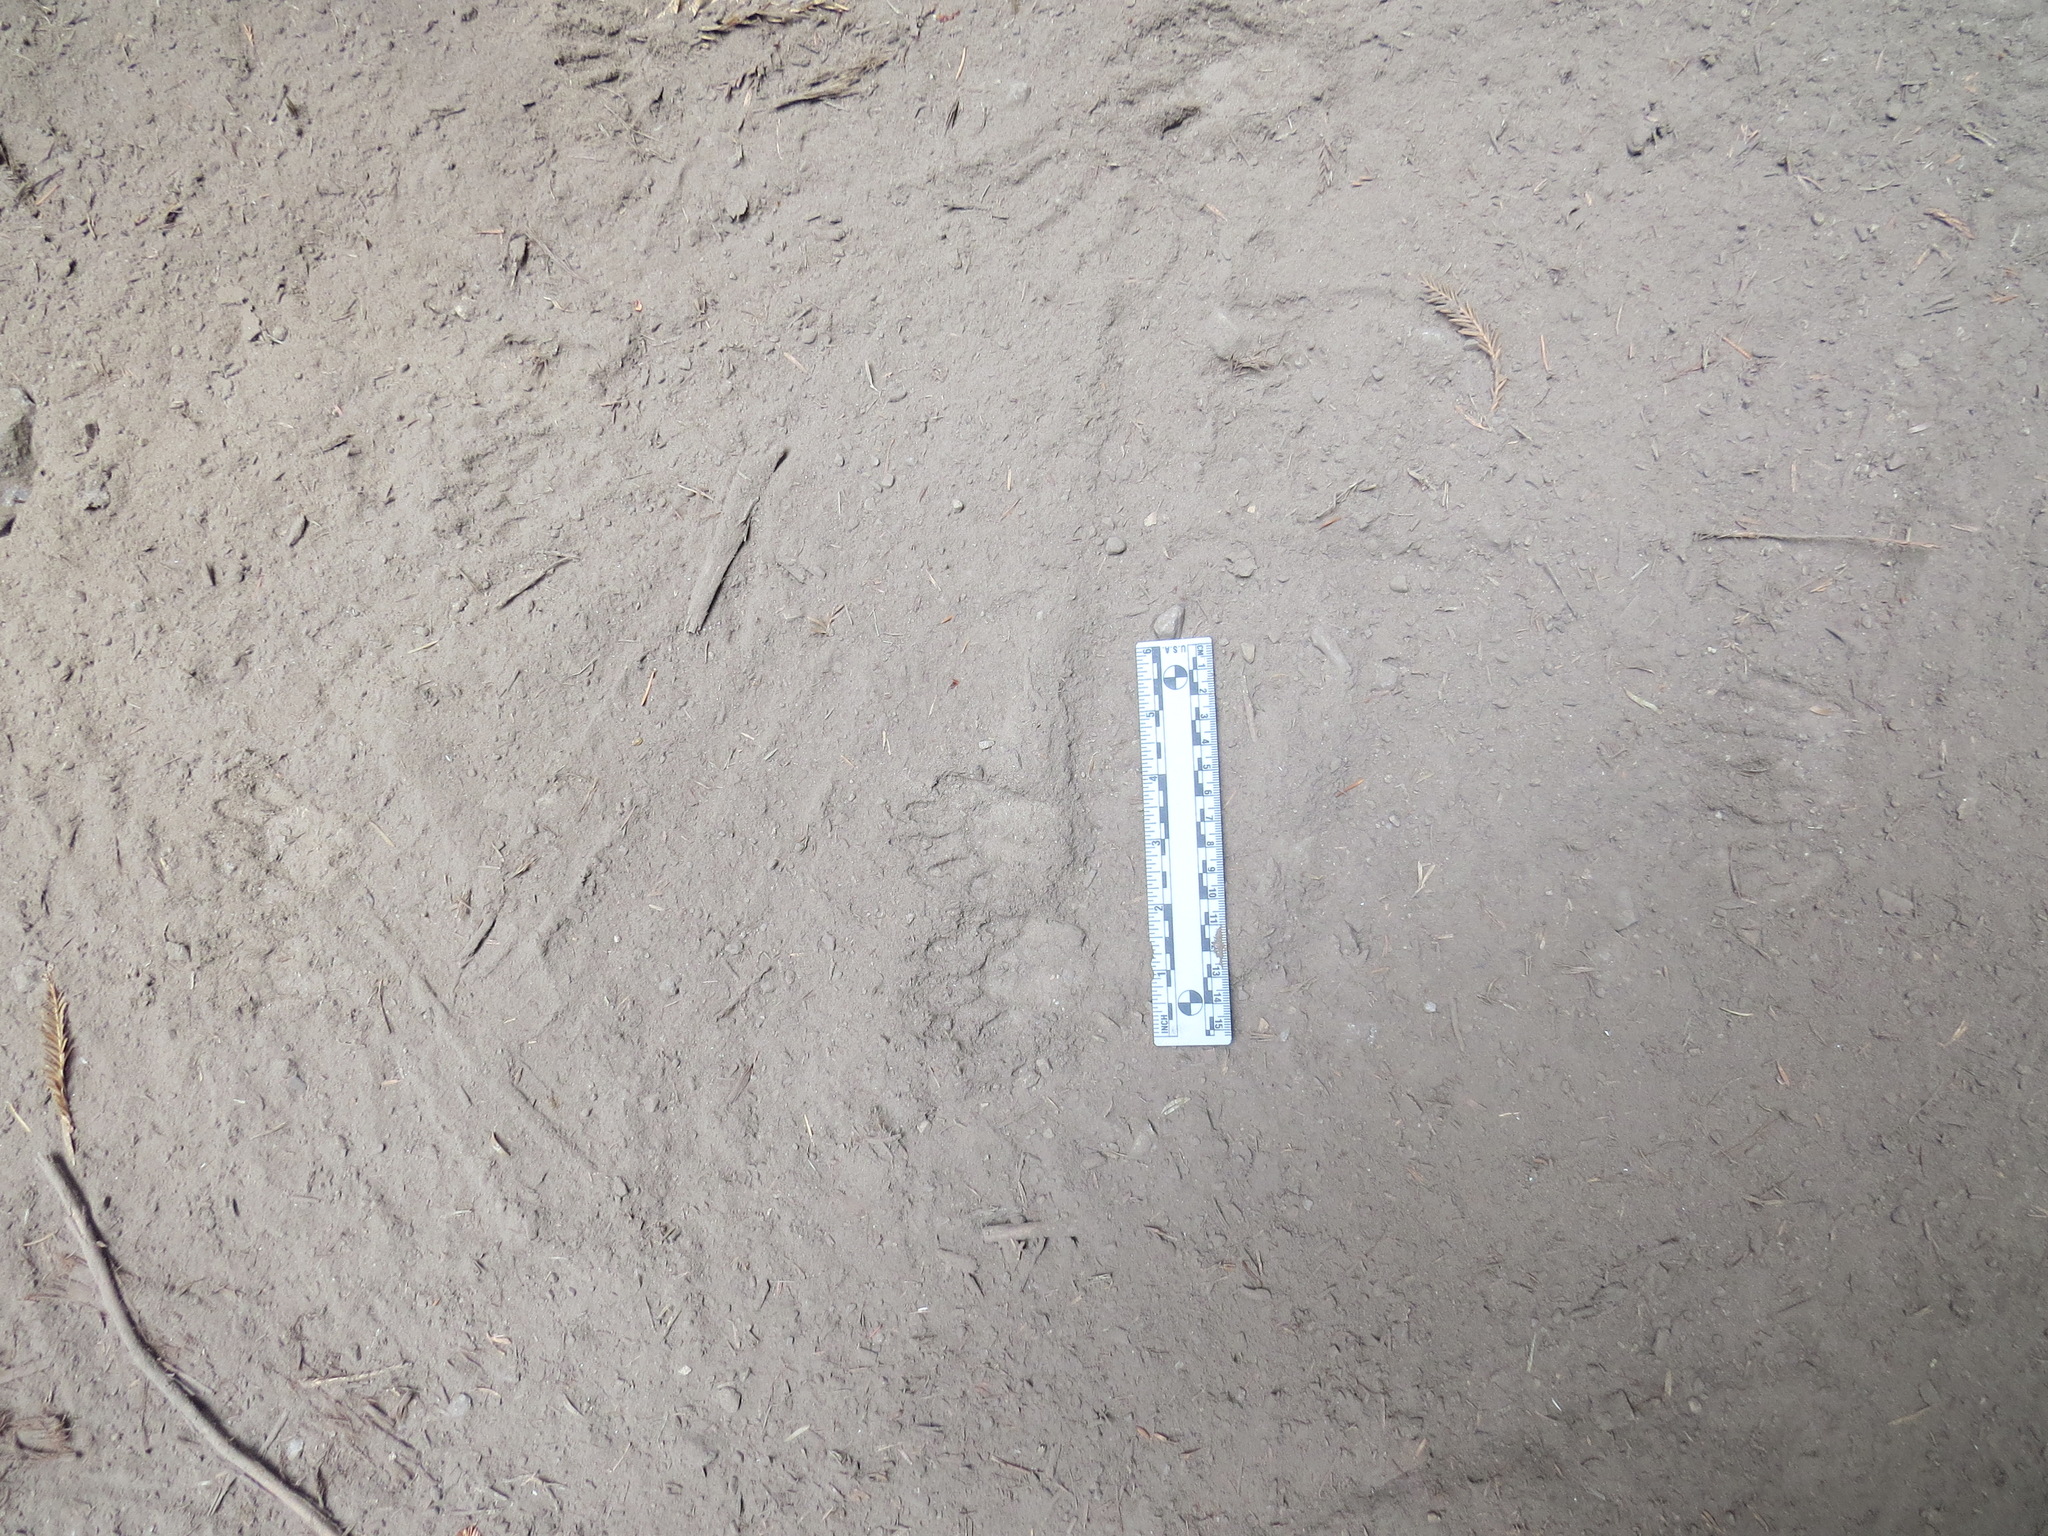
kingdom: Animalia
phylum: Chordata
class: Mammalia
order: Carnivora
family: Procyonidae
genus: Procyon
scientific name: Procyon lotor
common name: Raccoon
